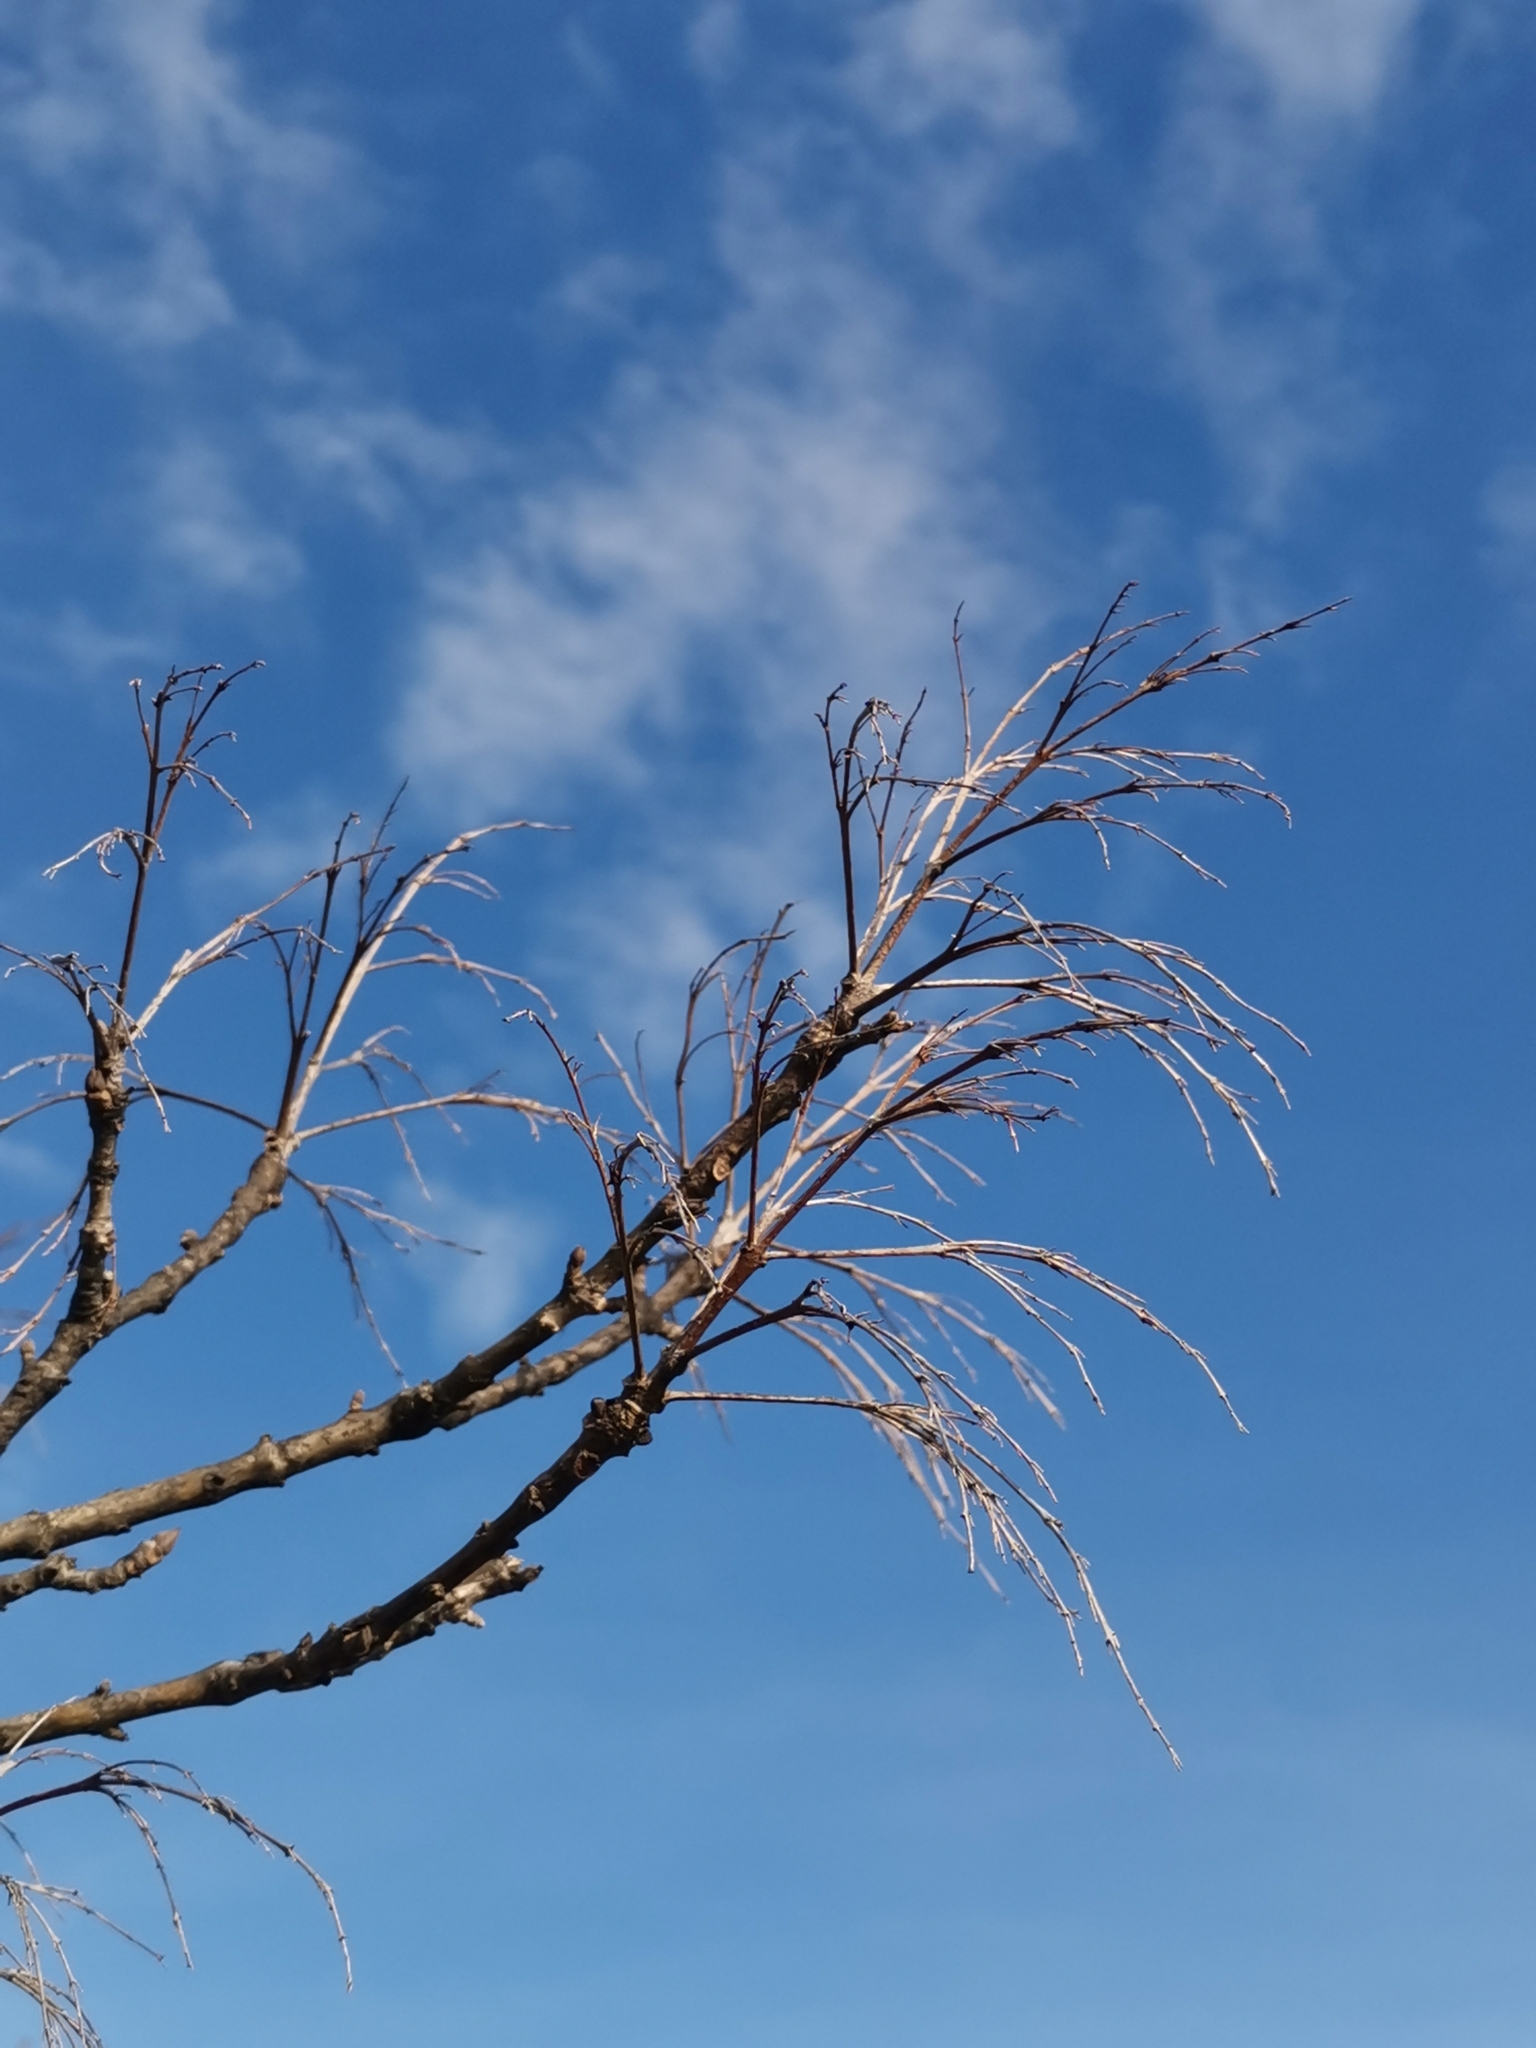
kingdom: Plantae
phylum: Tracheophyta
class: Magnoliopsida
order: Lamiales
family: Oleaceae
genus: Fraxinus
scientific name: Fraxinus ornus
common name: Manna ash
